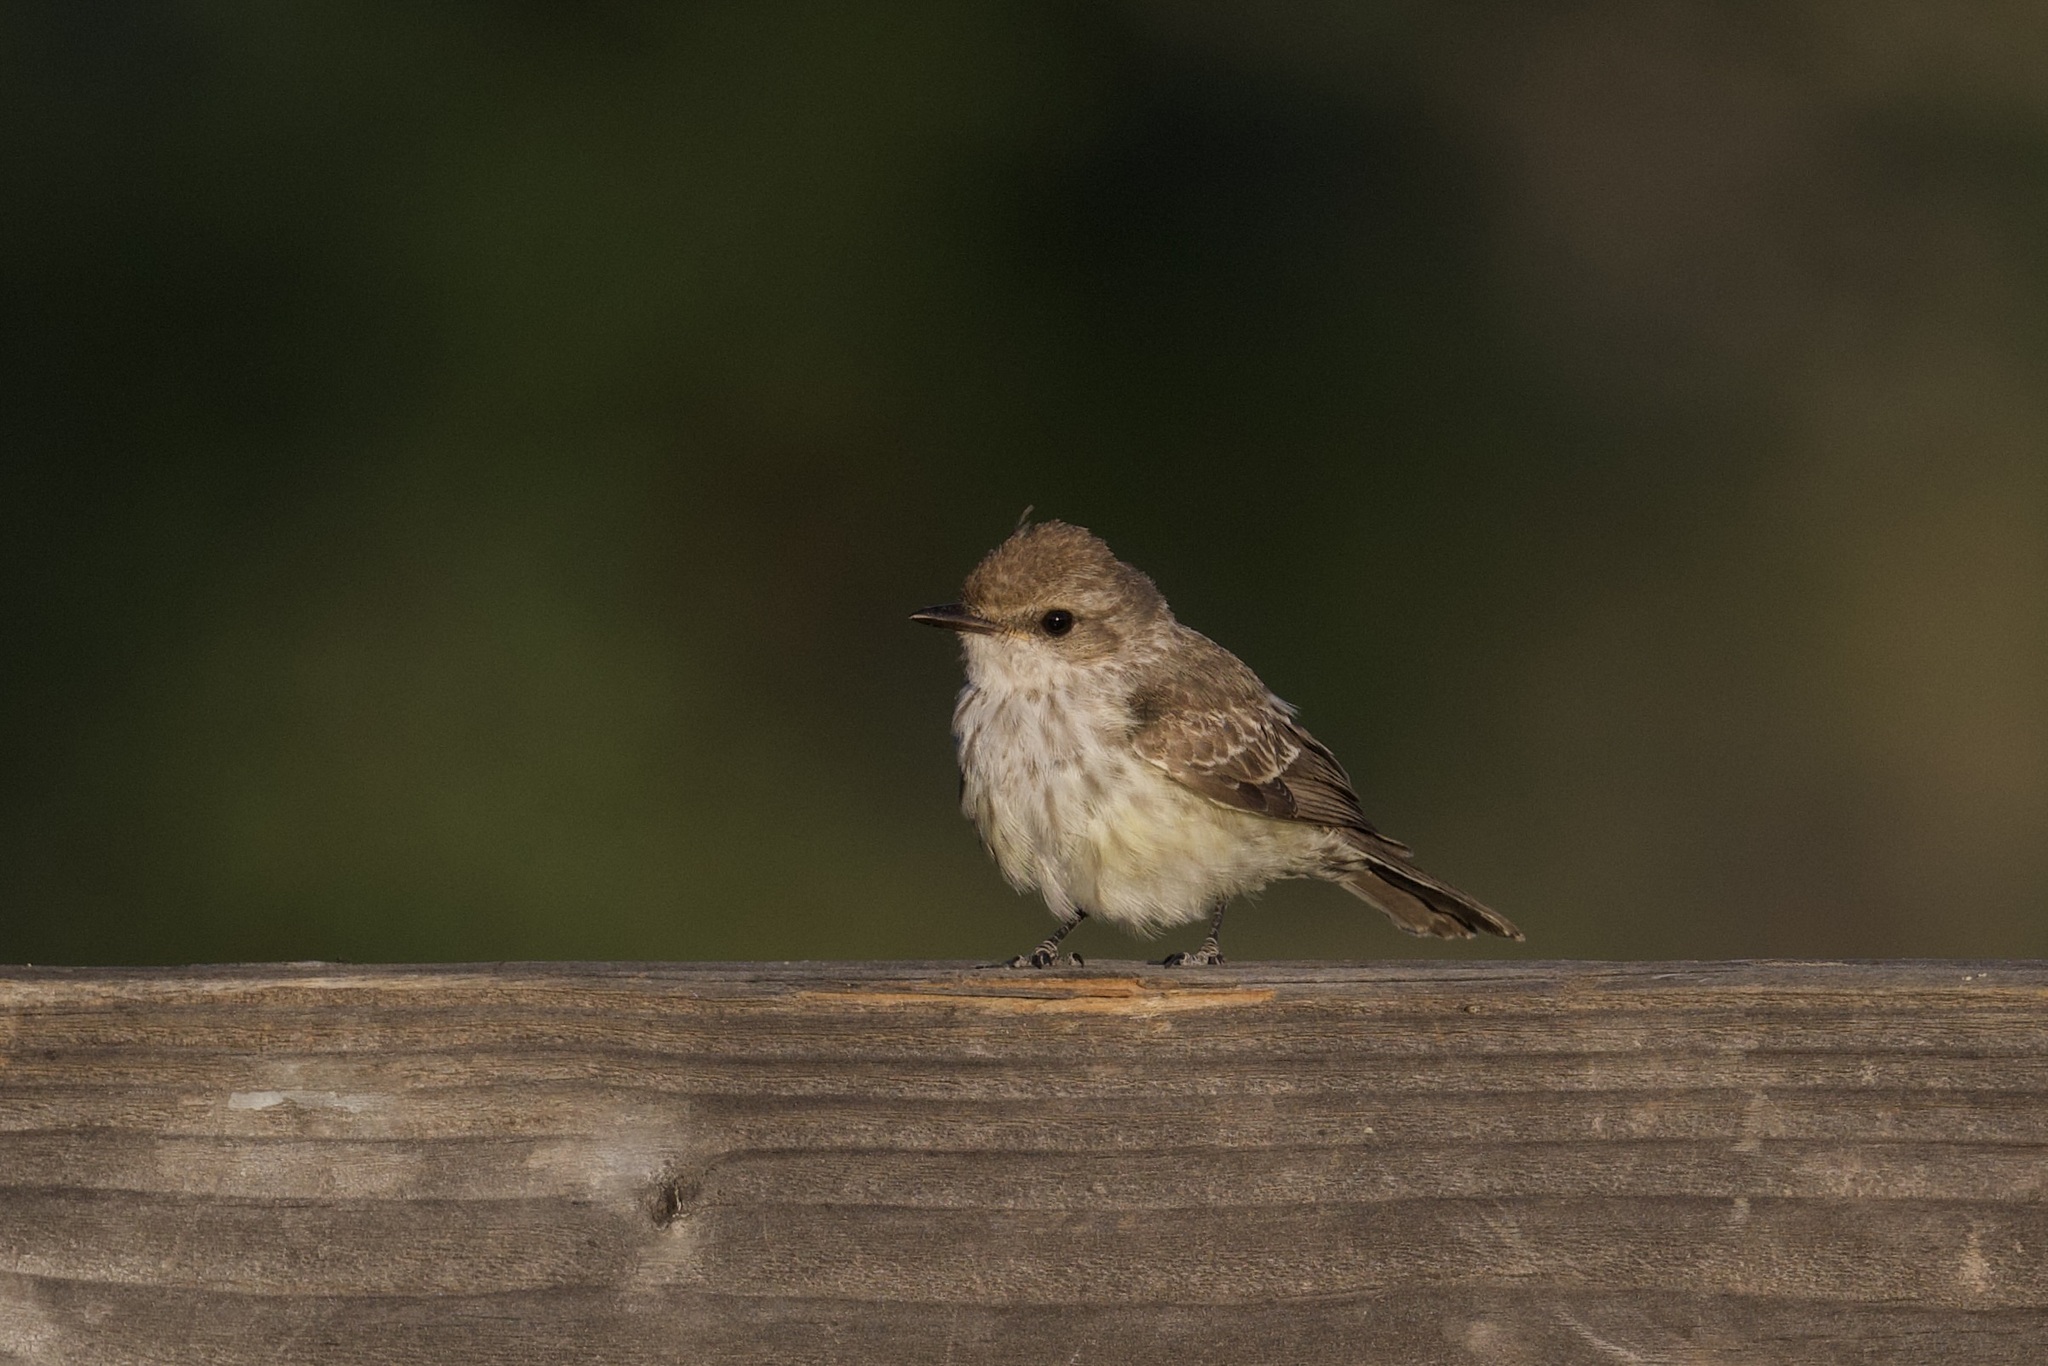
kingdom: Animalia
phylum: Chordata
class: Aves
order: Passeriformes
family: Tyrannidae
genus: Pyrocephalus
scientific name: Pyrocephalus rubinus
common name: Vermilion flycatcher
